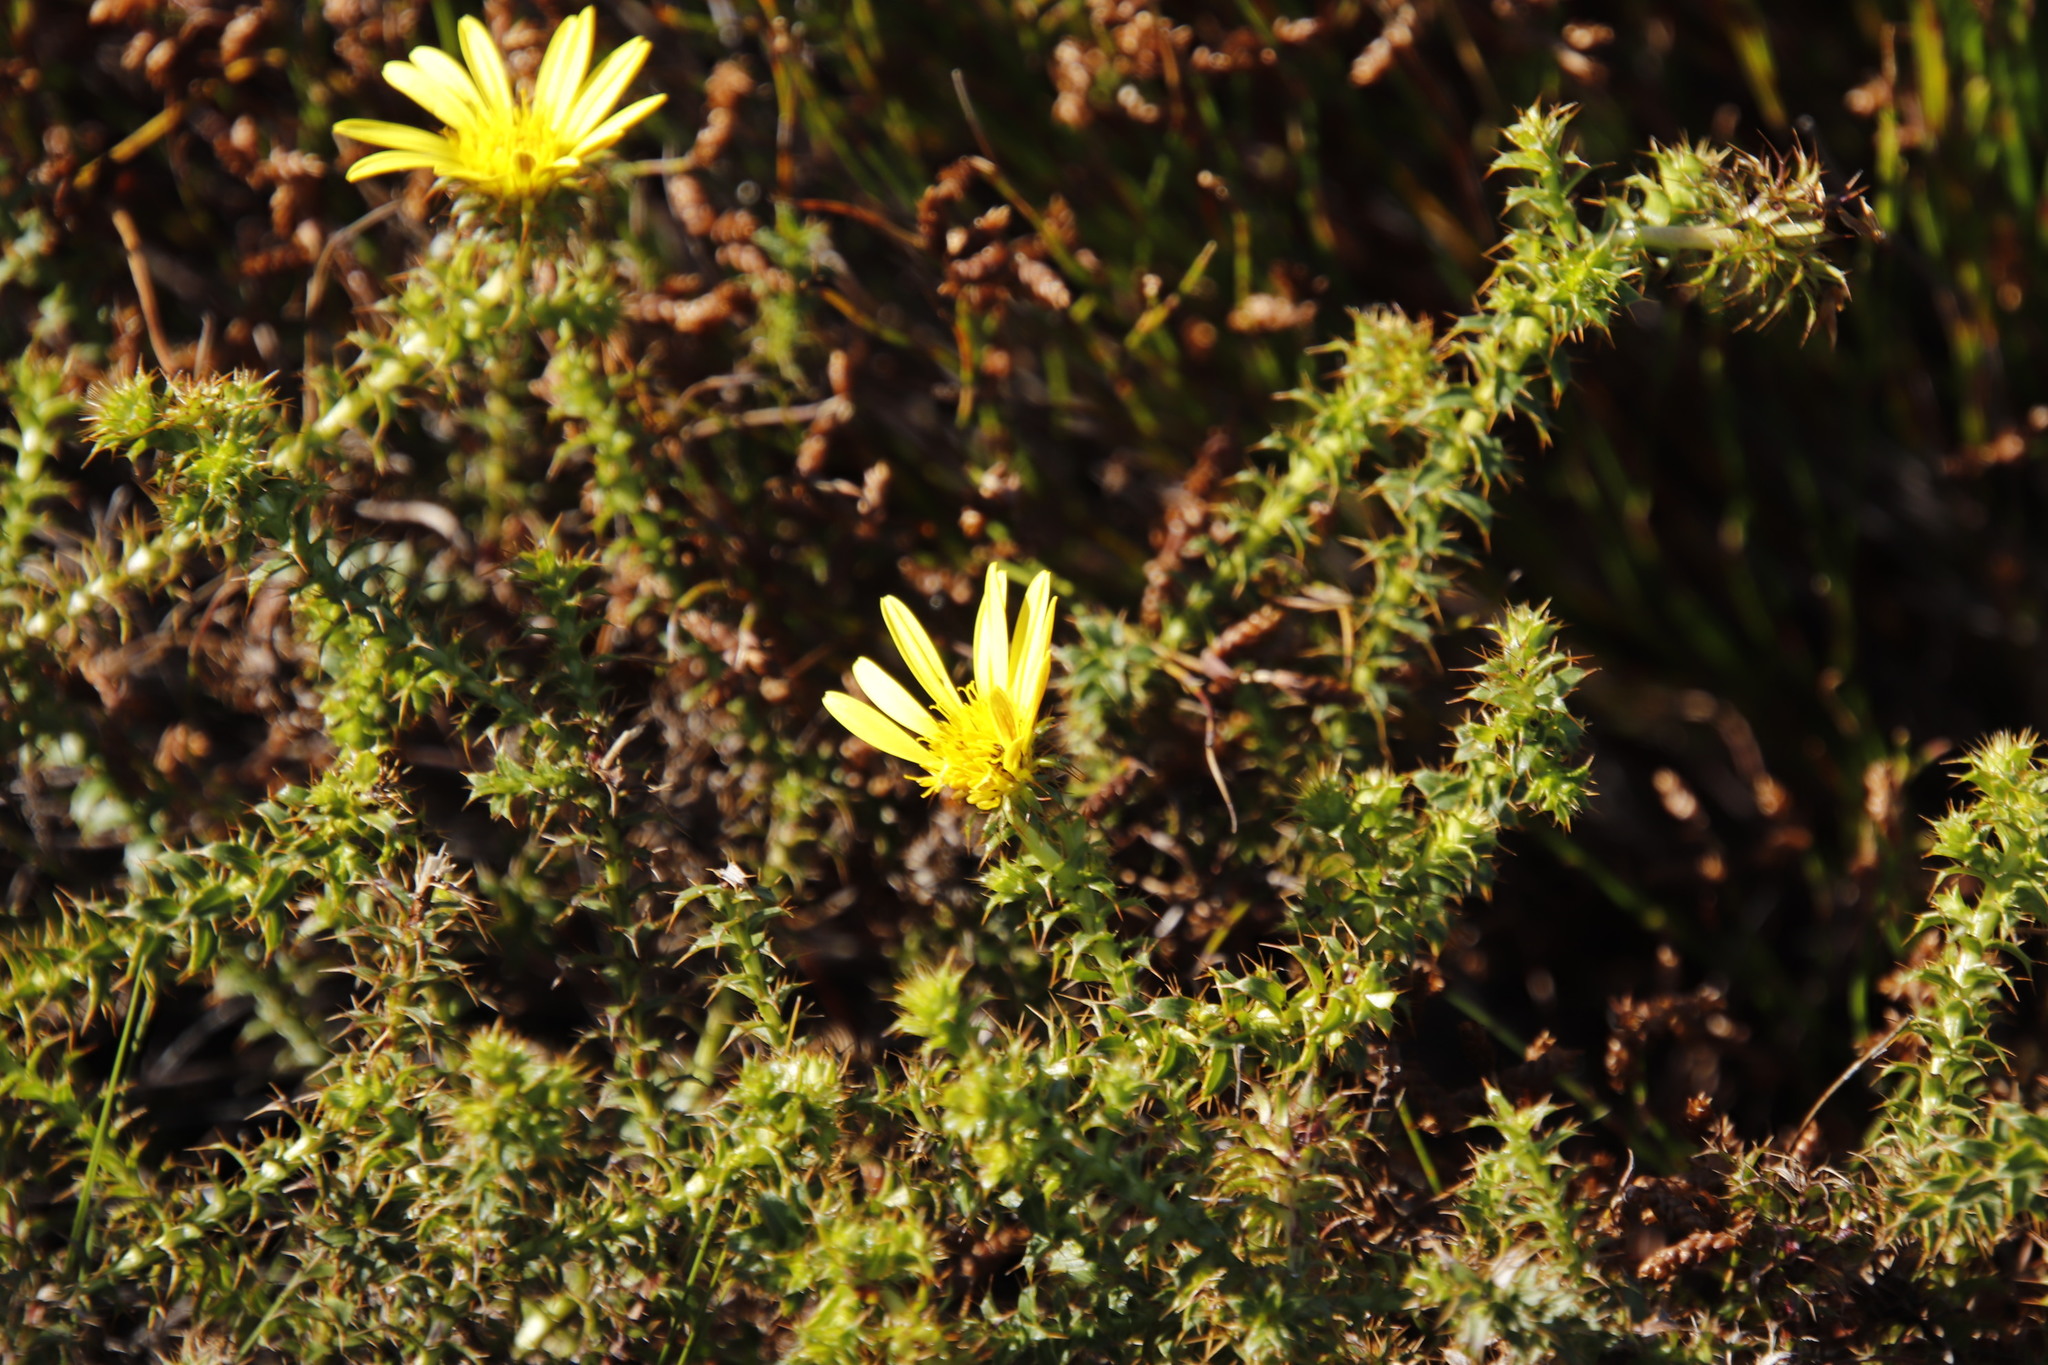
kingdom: Plantae
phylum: Tracheophyta
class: Magnoliopsida
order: Asterales
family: Asteraceae
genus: Cullumia
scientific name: Cullumia setosa
